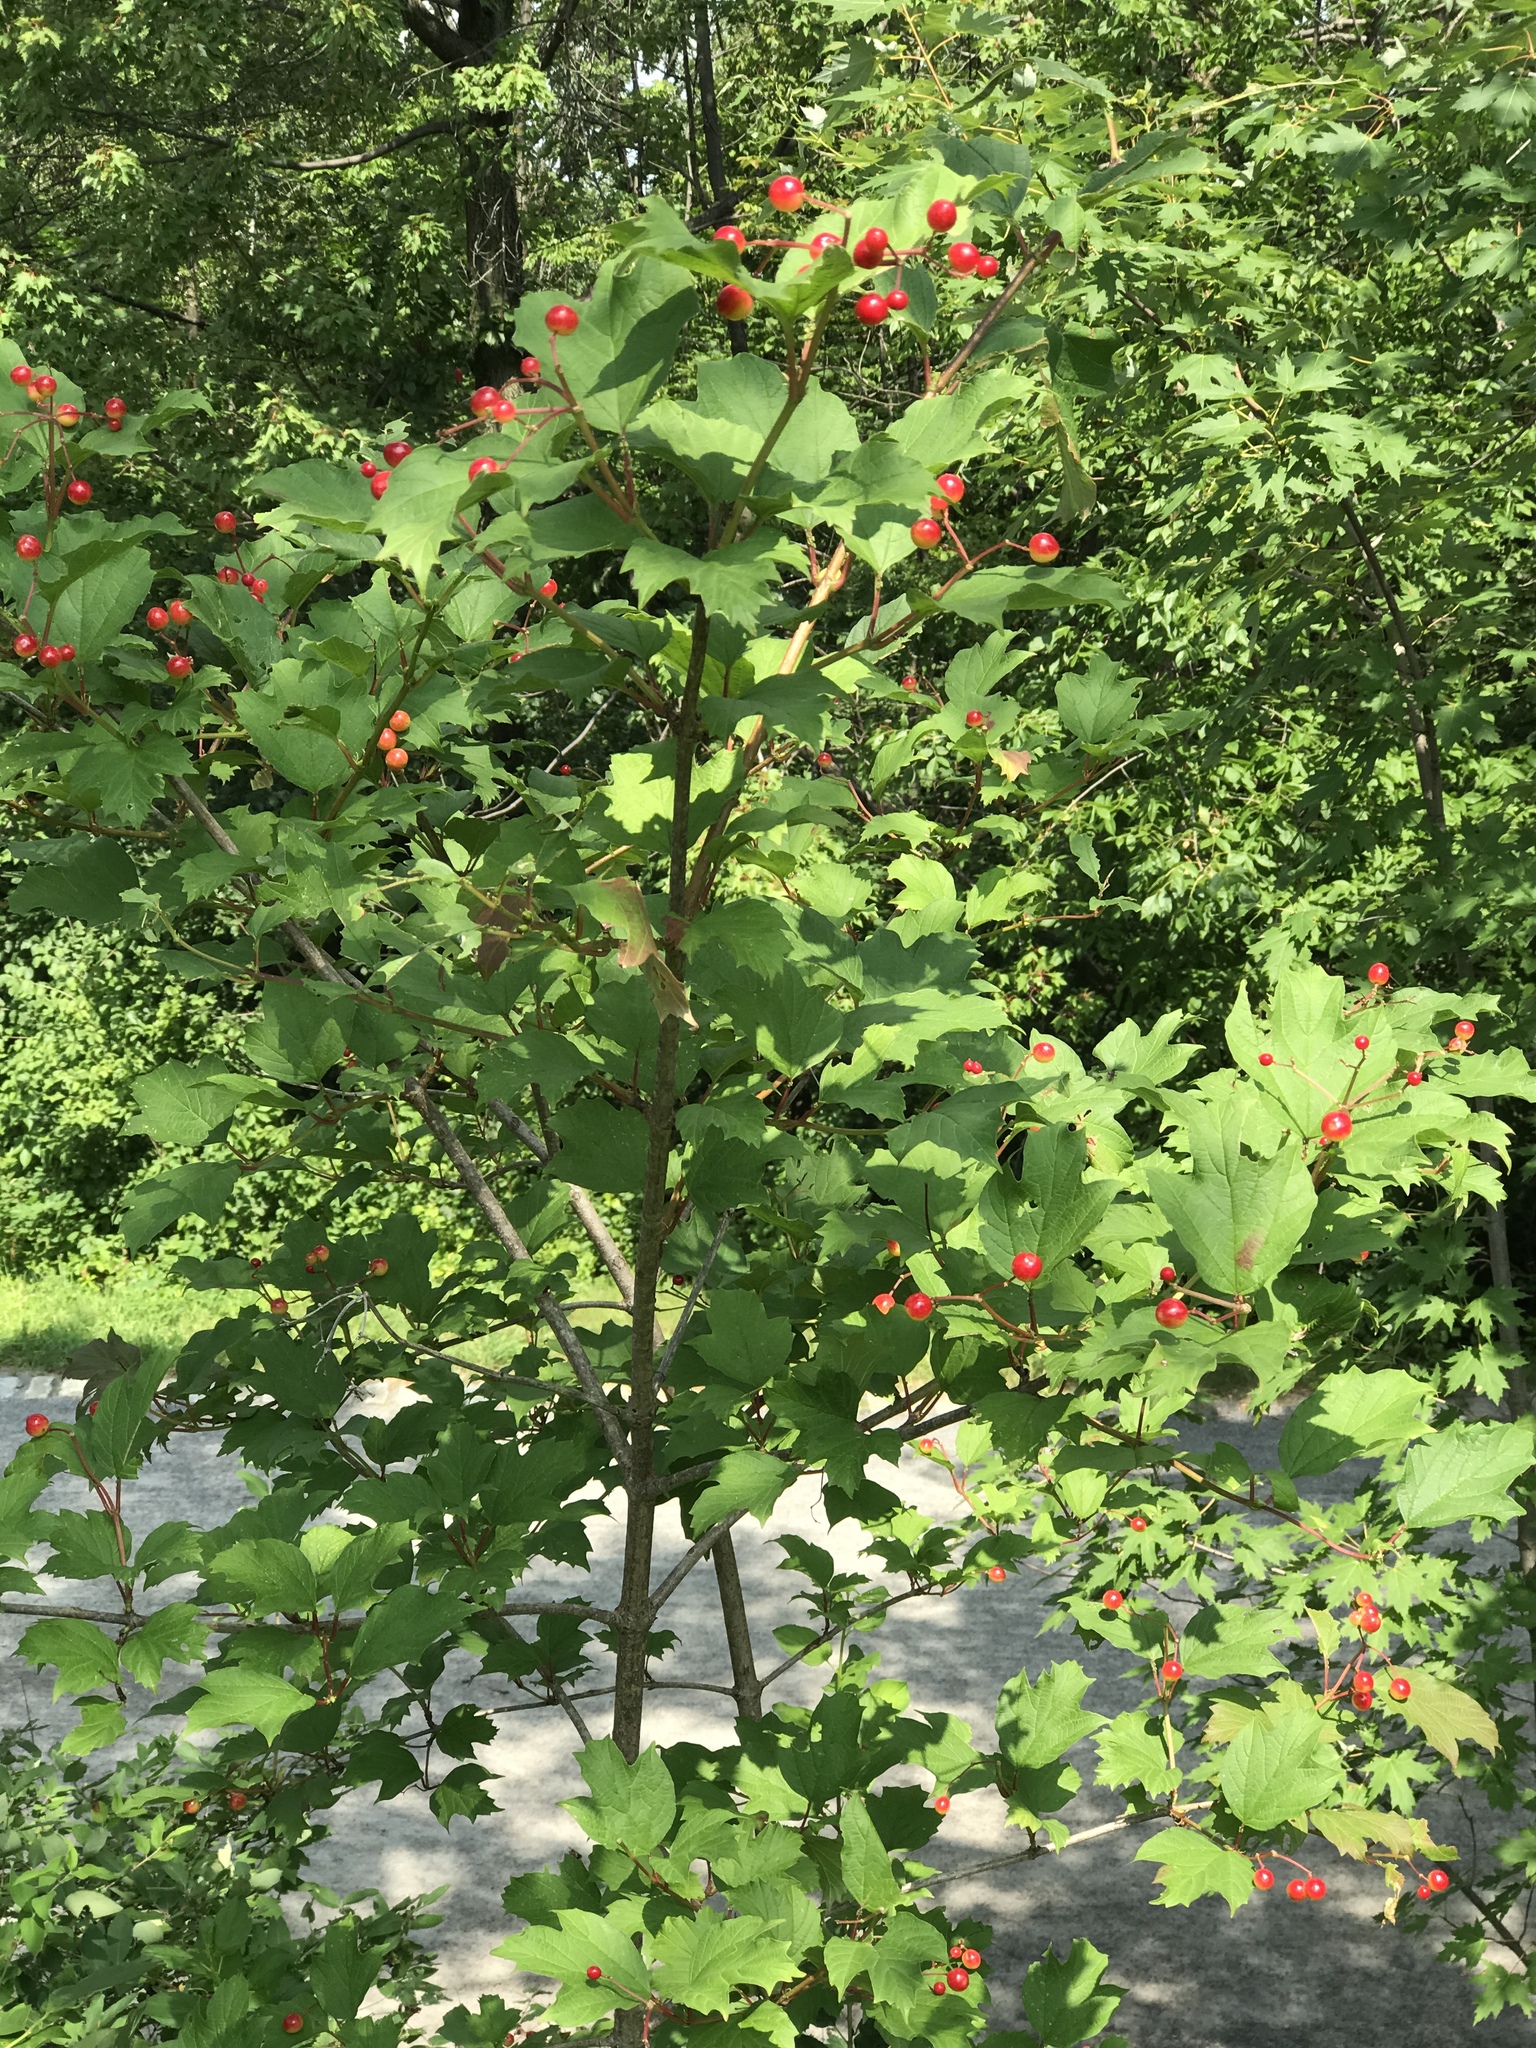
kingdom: Plantae
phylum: Tracheophyta
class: Magnoliopsida
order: Dipsacales
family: Viburnaceae
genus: Viburnum
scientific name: Viburnum opulus
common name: Guelder-rose
